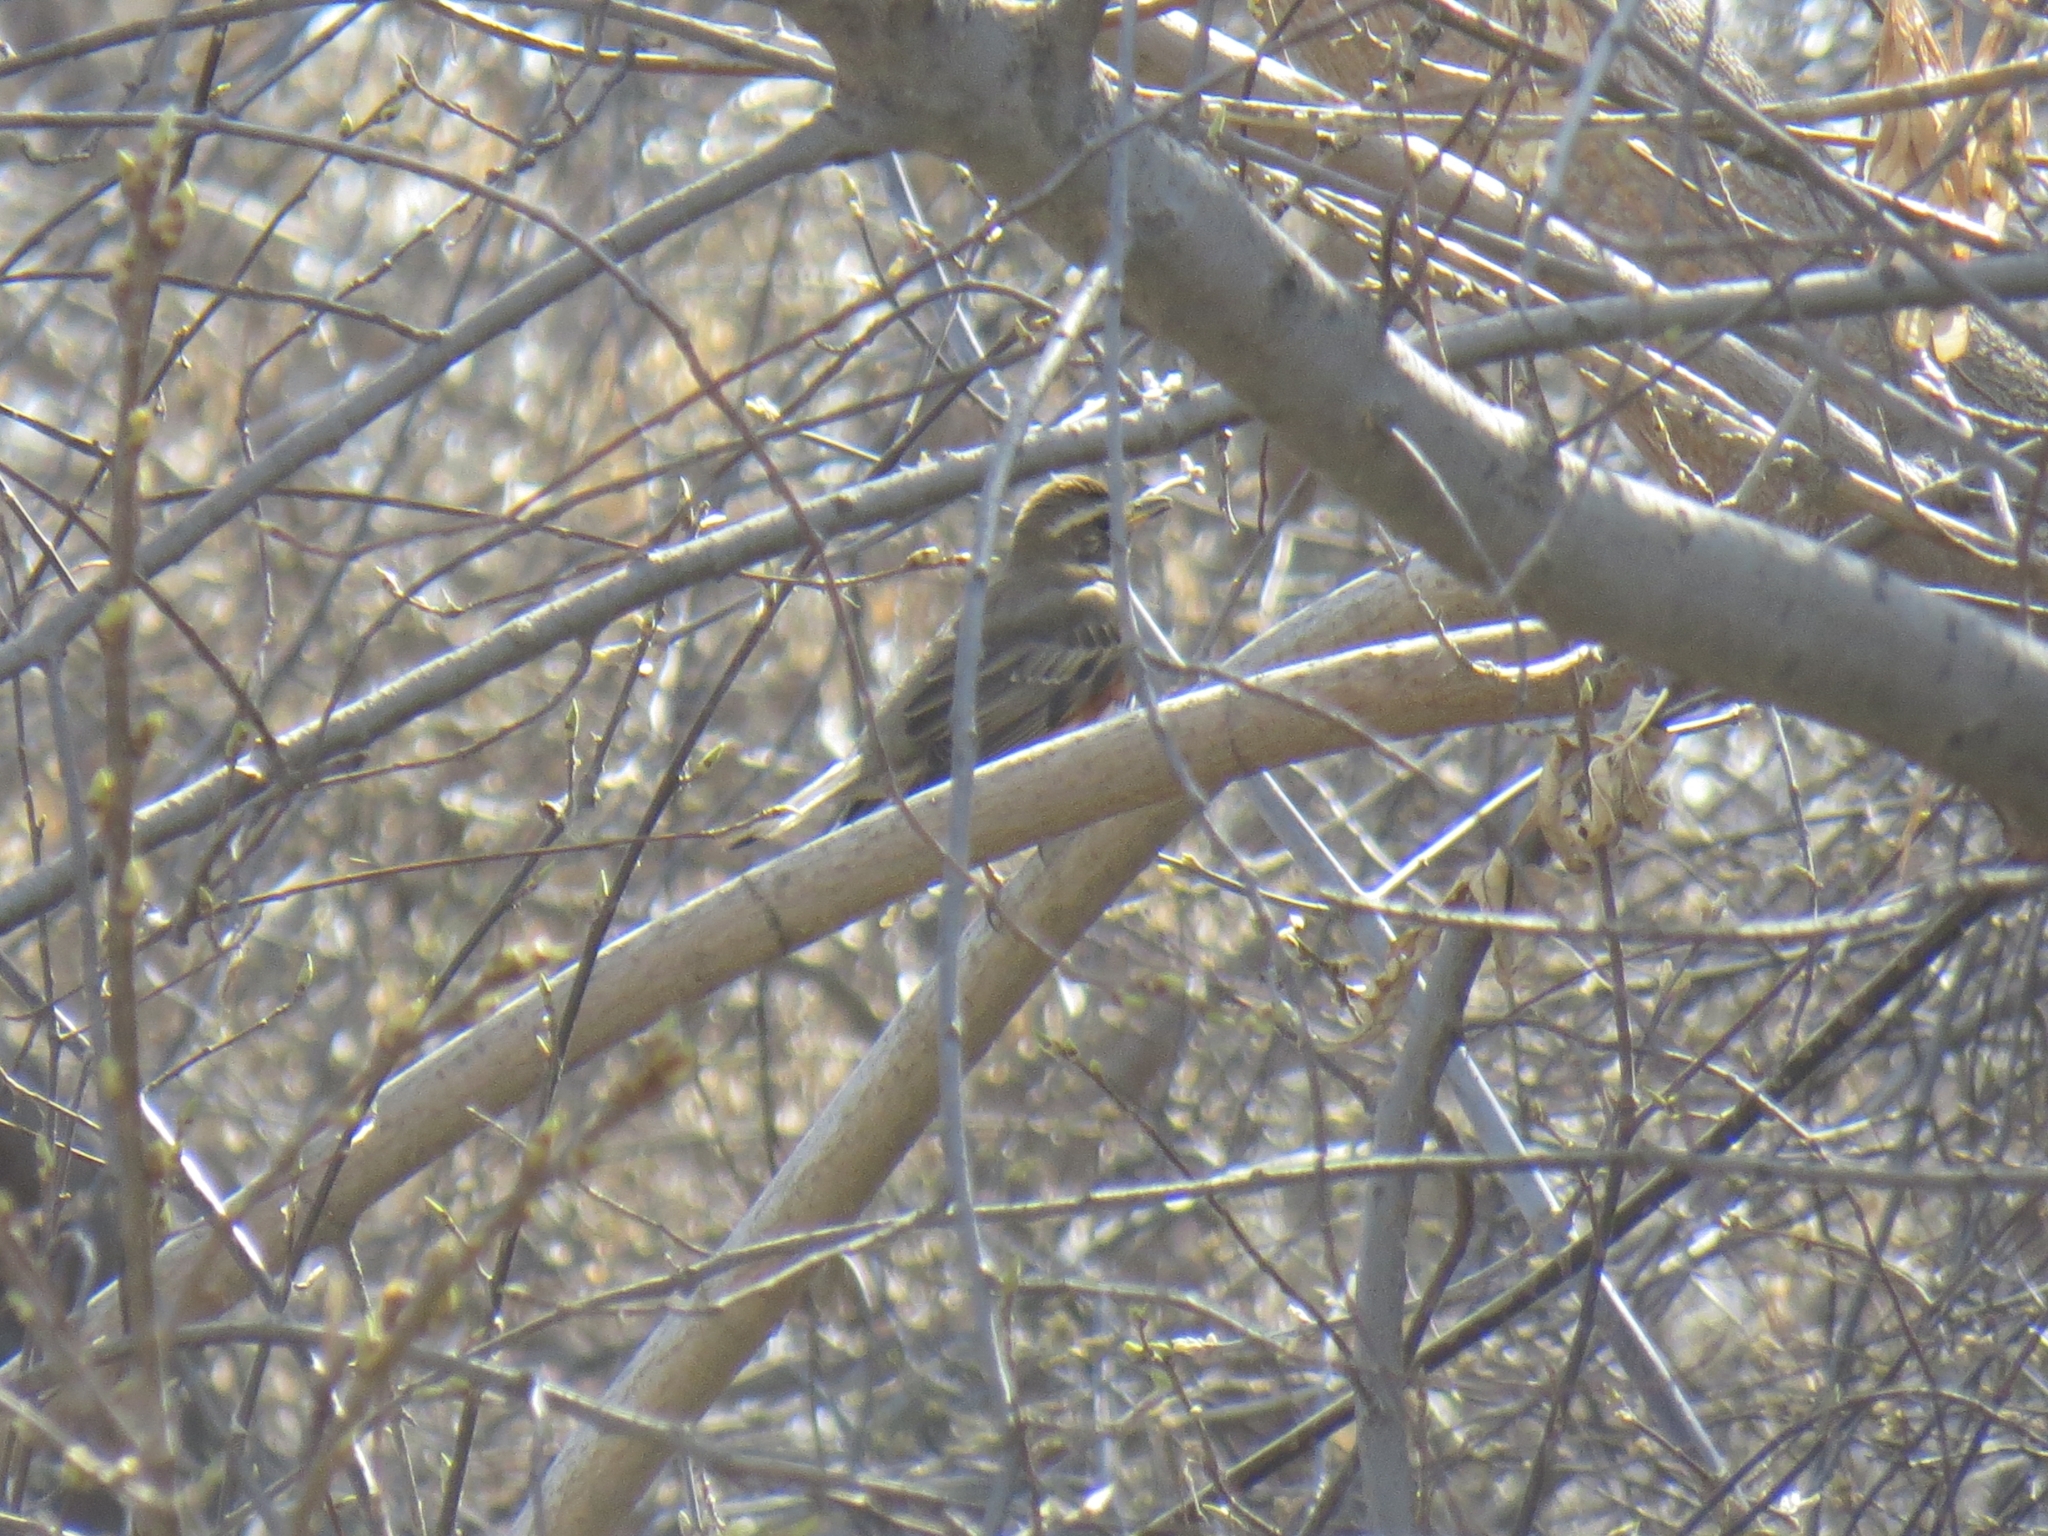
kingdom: Animalia
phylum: Chordata
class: Aves
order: Passeriformes
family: Turdidae
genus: Turdus
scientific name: Turdus iliacus
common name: Redwing
